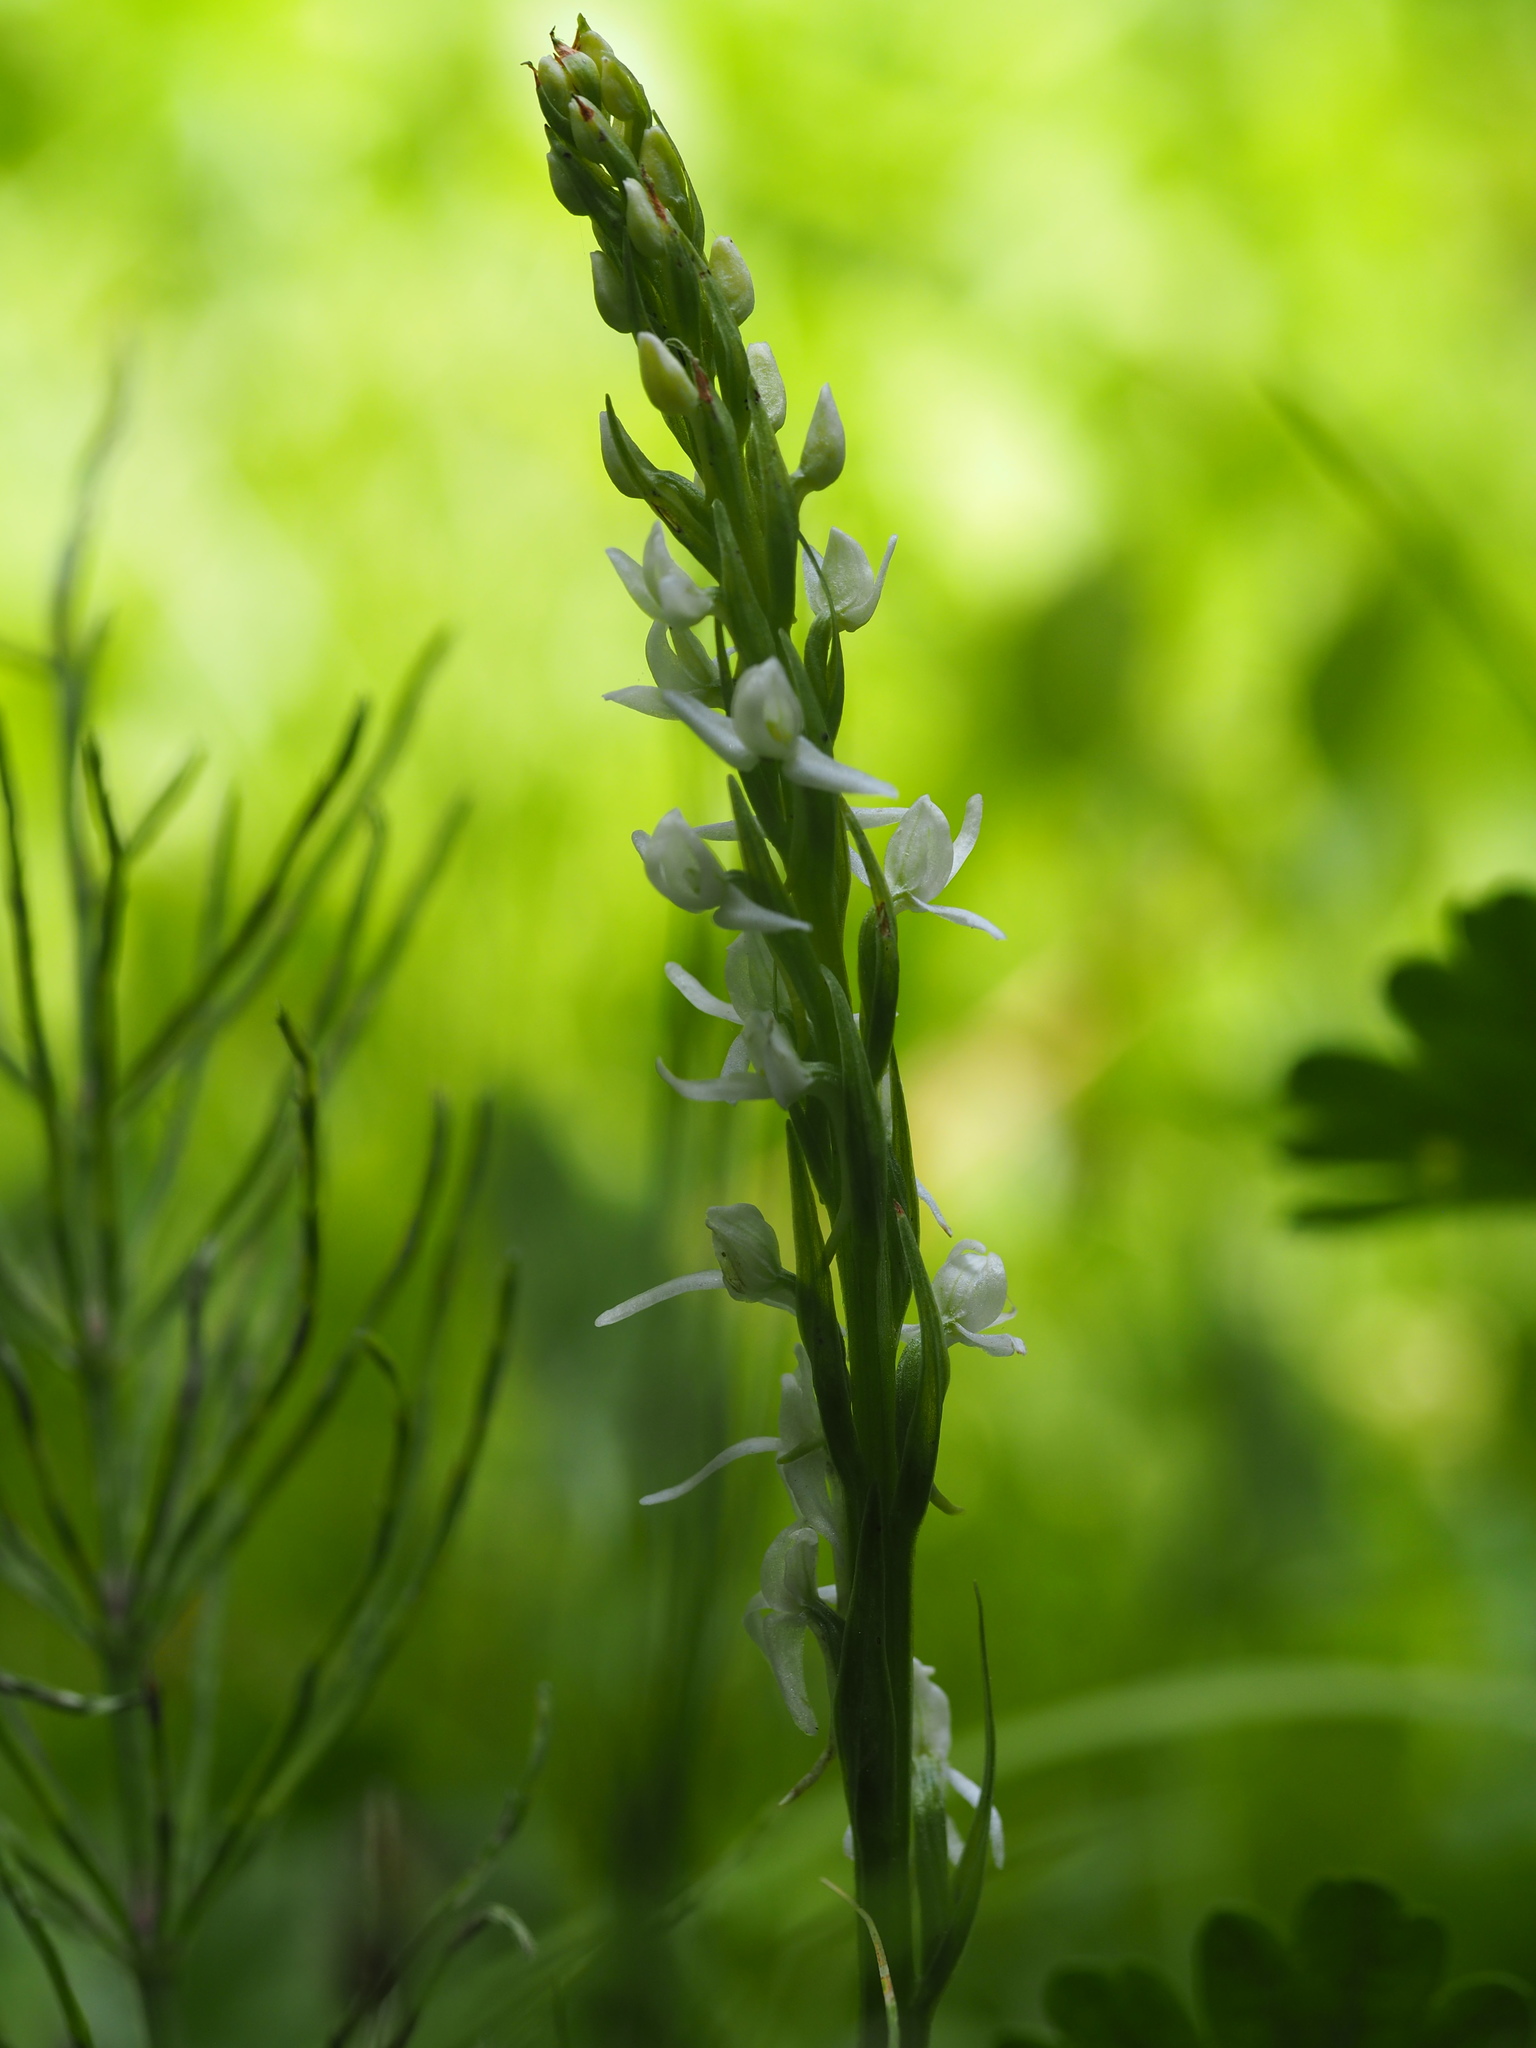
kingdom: Plantae
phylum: Tracheophyta
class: Liliopsida
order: Asparagales
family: Orchidaceae
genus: Platanthera
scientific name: Platanthera dilatata
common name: Bog candles
